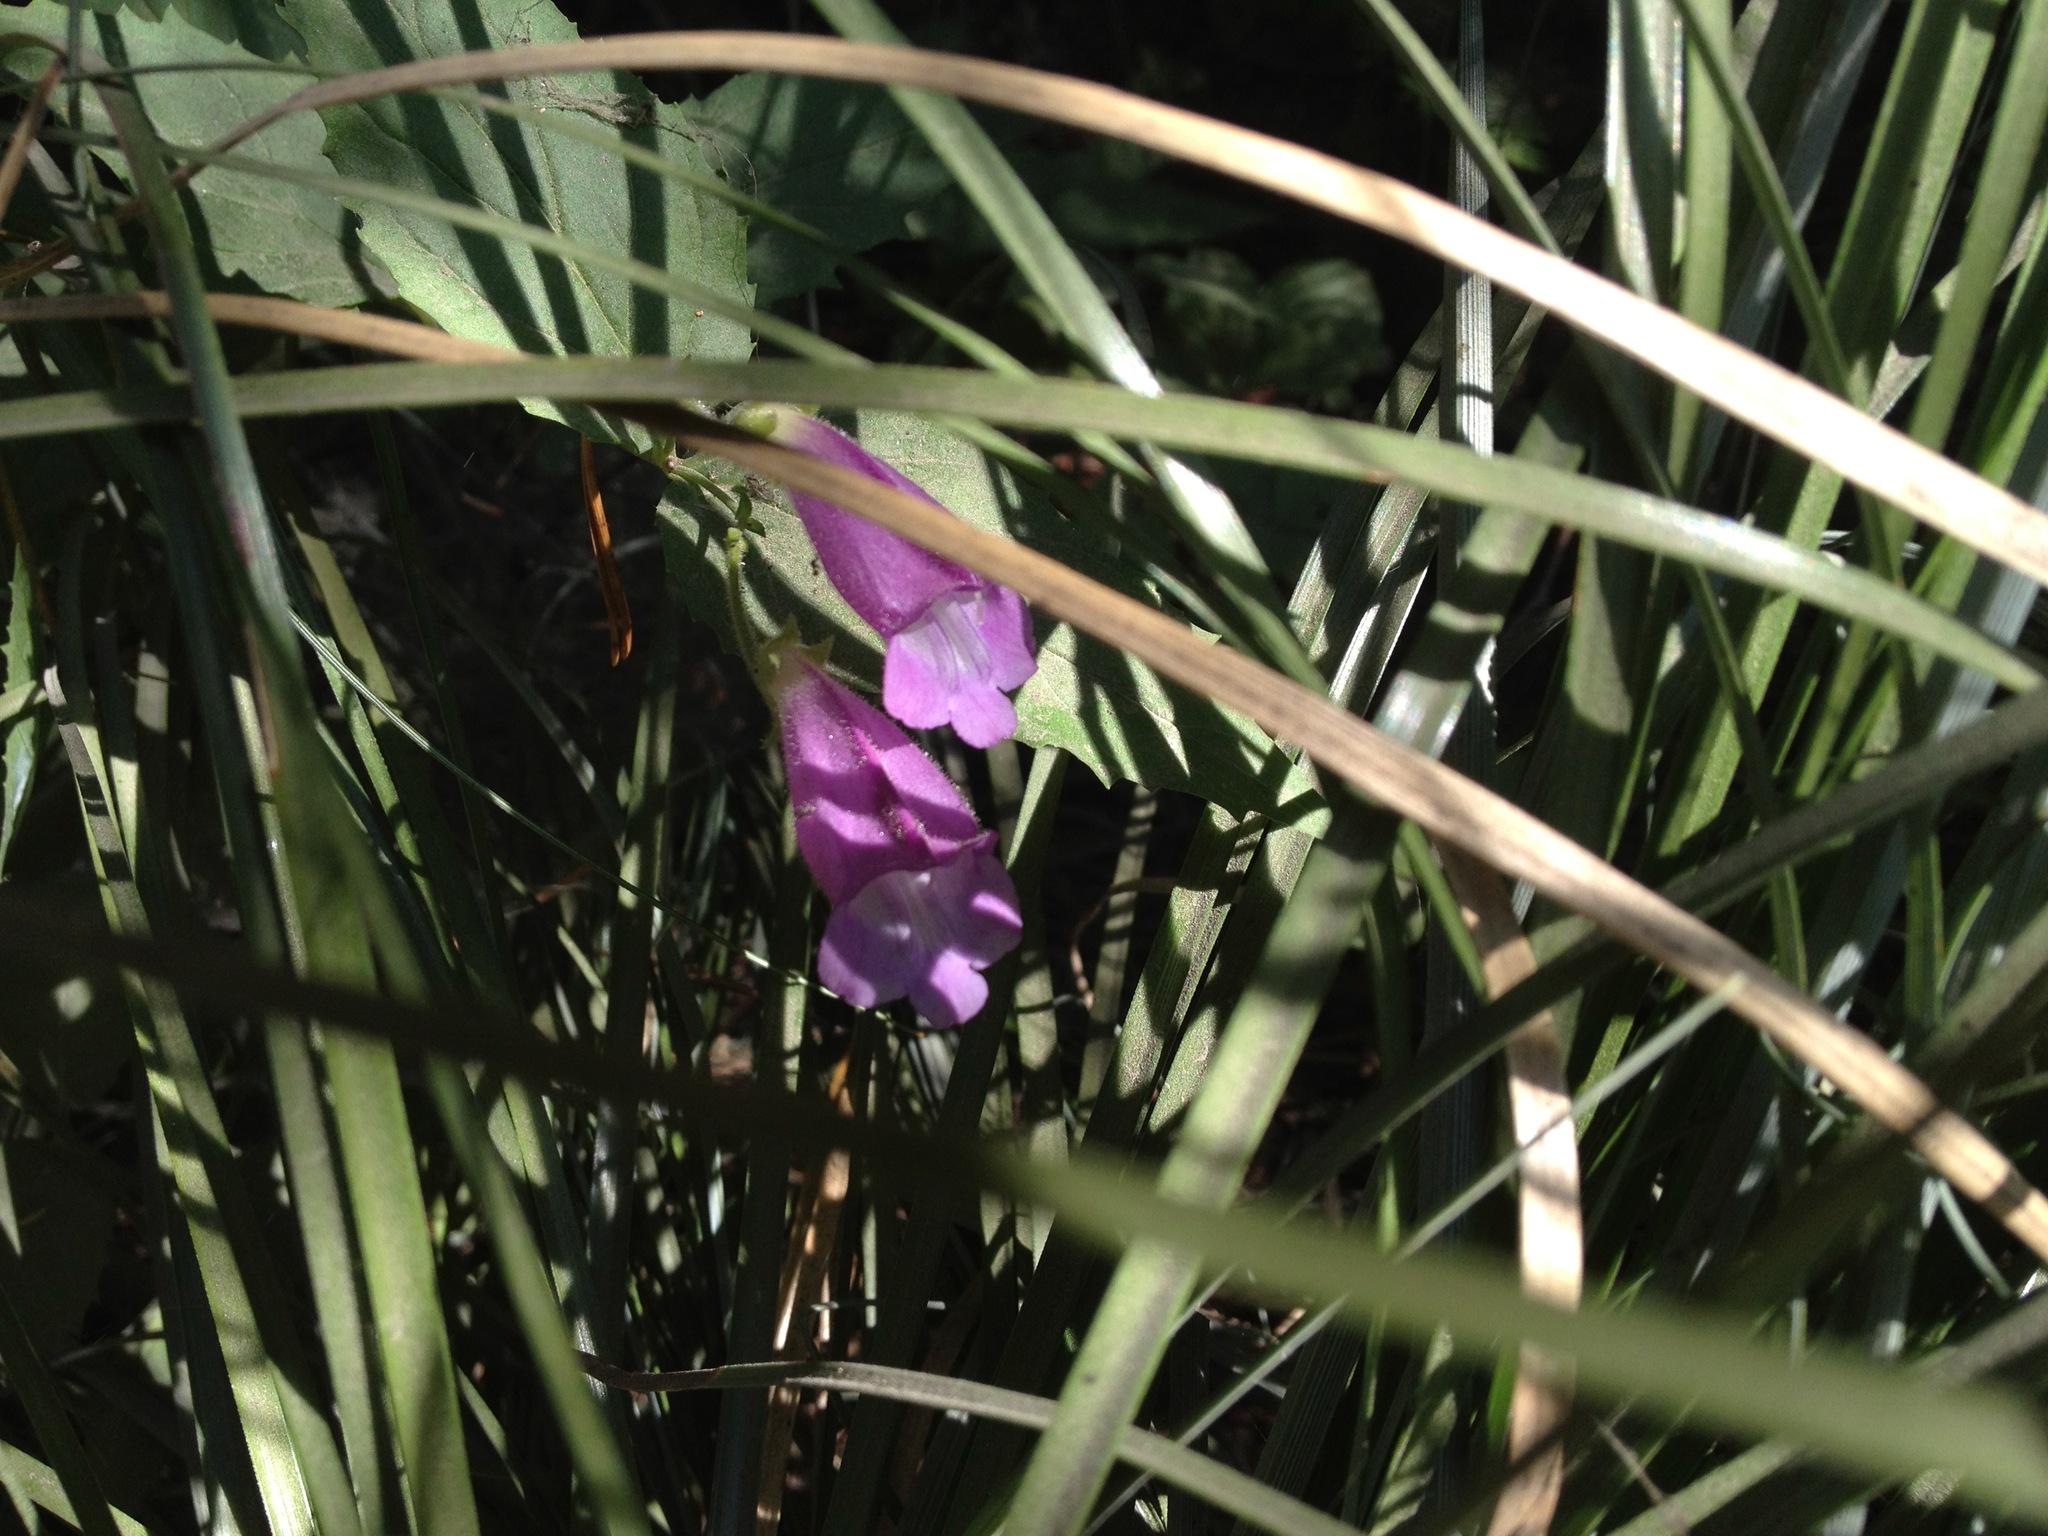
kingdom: Plantae
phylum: Tracheophyta
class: Magnoliopsida
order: Lamiales
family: Plantaginaceae
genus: Nothochelone
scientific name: Nothochelone nemorosa
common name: Woodland beardtongue
